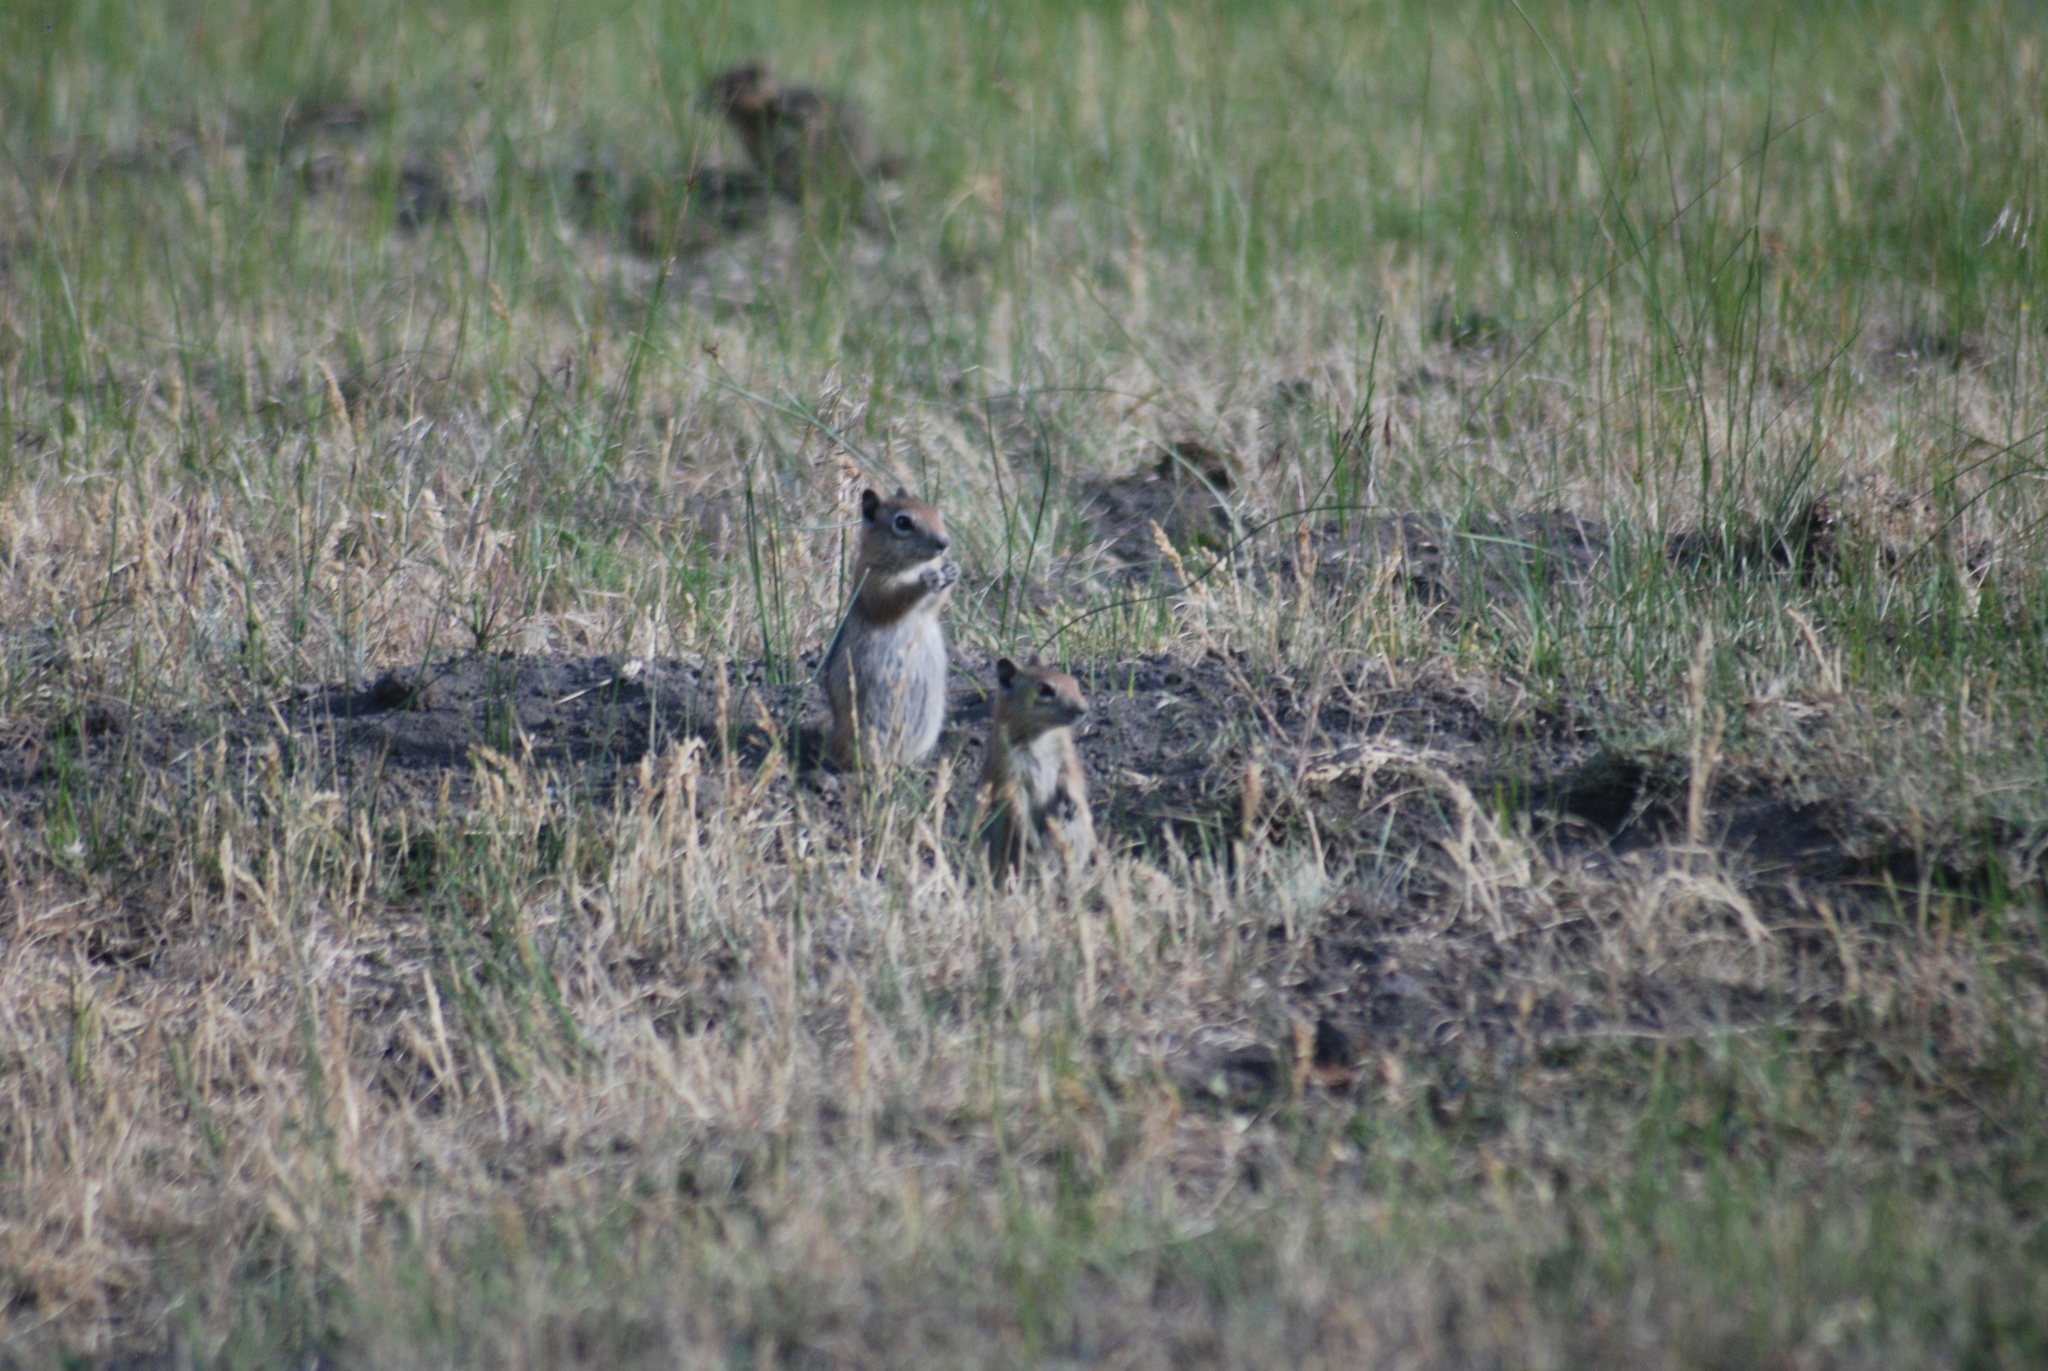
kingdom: Animalia
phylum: Chordata
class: Mammalia
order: Rodentia
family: Sciuridae
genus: Callospermophilus
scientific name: Callospermophilus lateralis
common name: Golden-mantled ground squirrel
